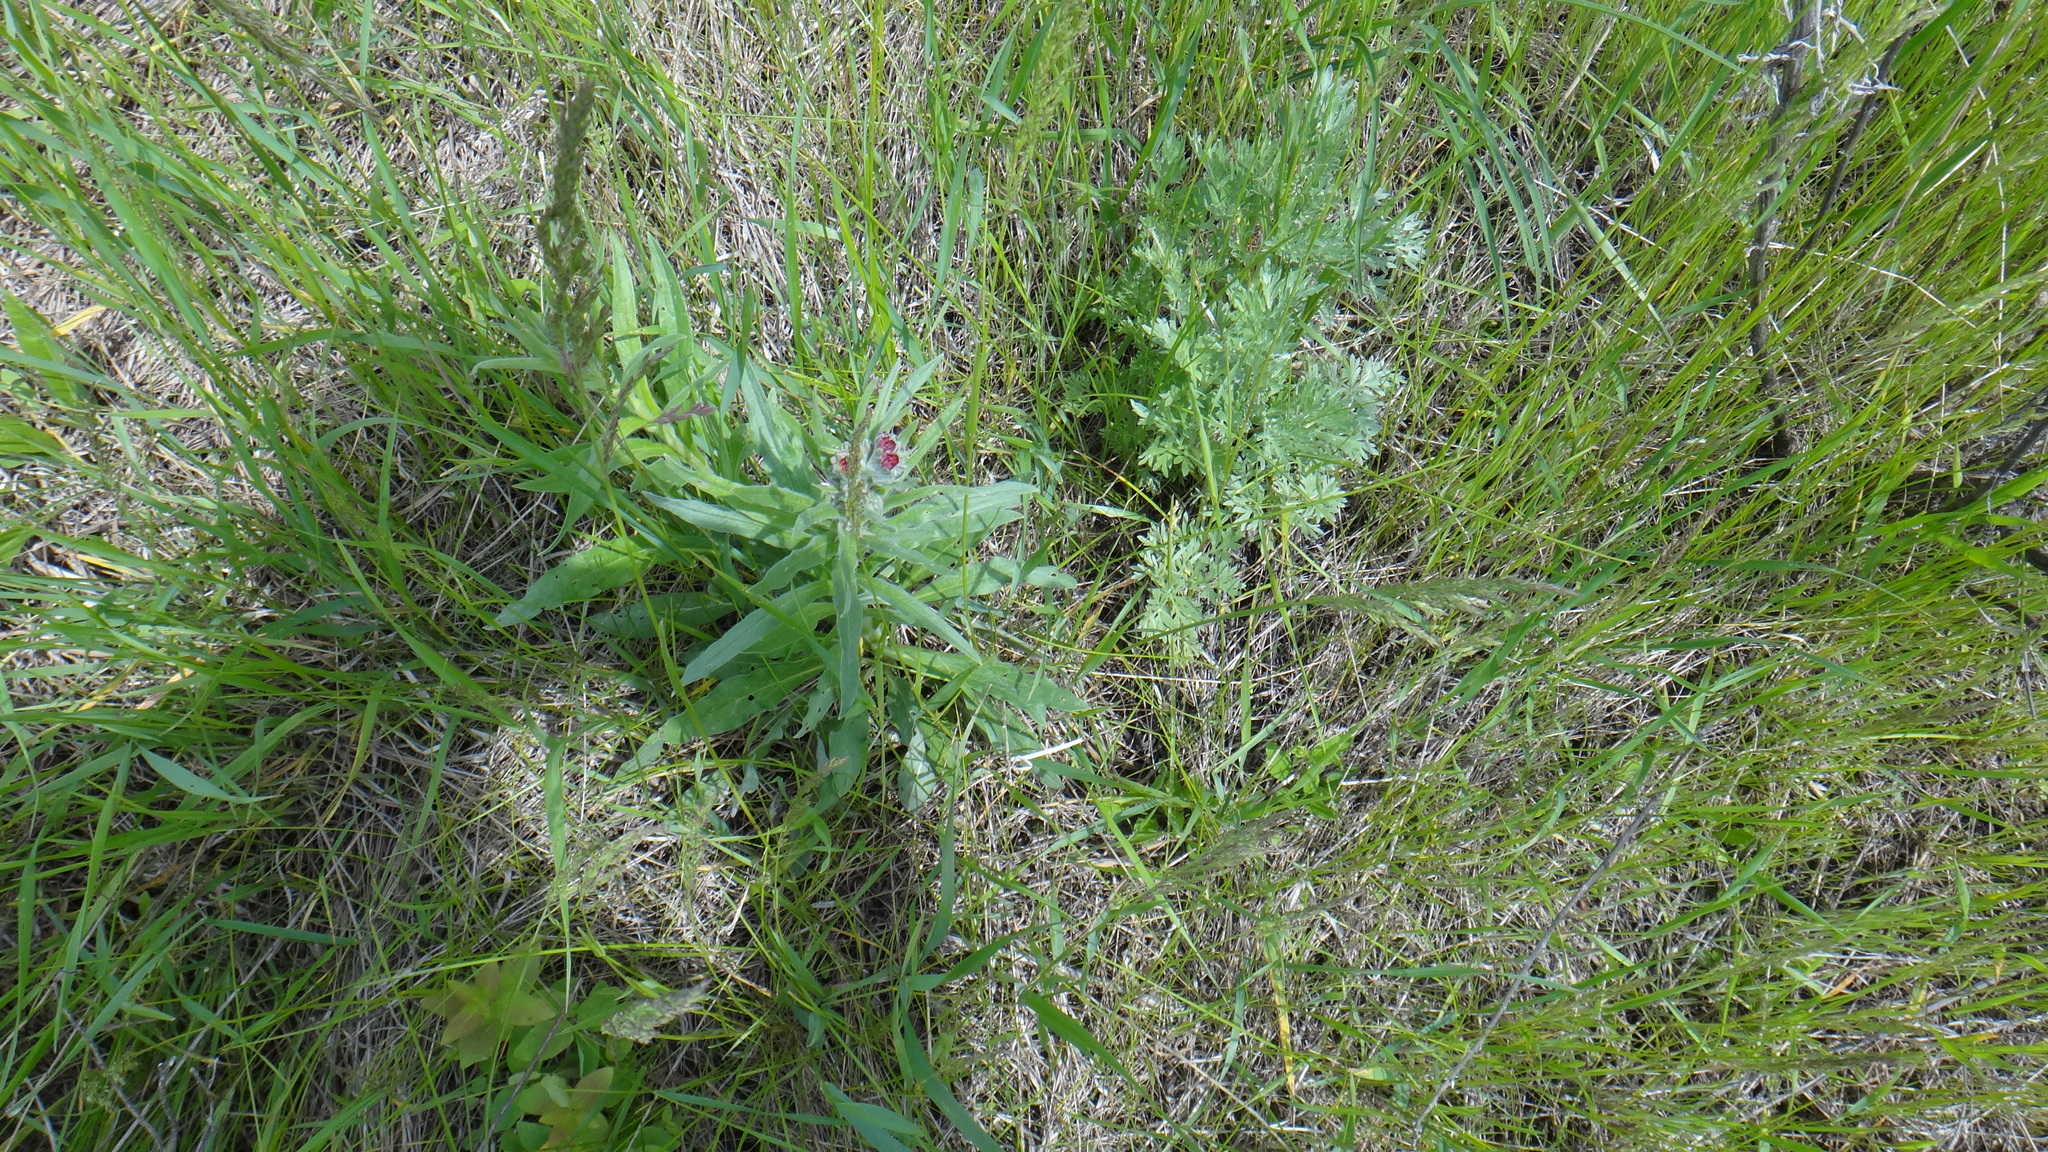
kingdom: Plantae
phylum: Tracheophyta
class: Magnoliopsida
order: Boraginales
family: Boraginaceae
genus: Cynoglossum
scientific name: Cynoglossum officinale
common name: Hound's-tongue
